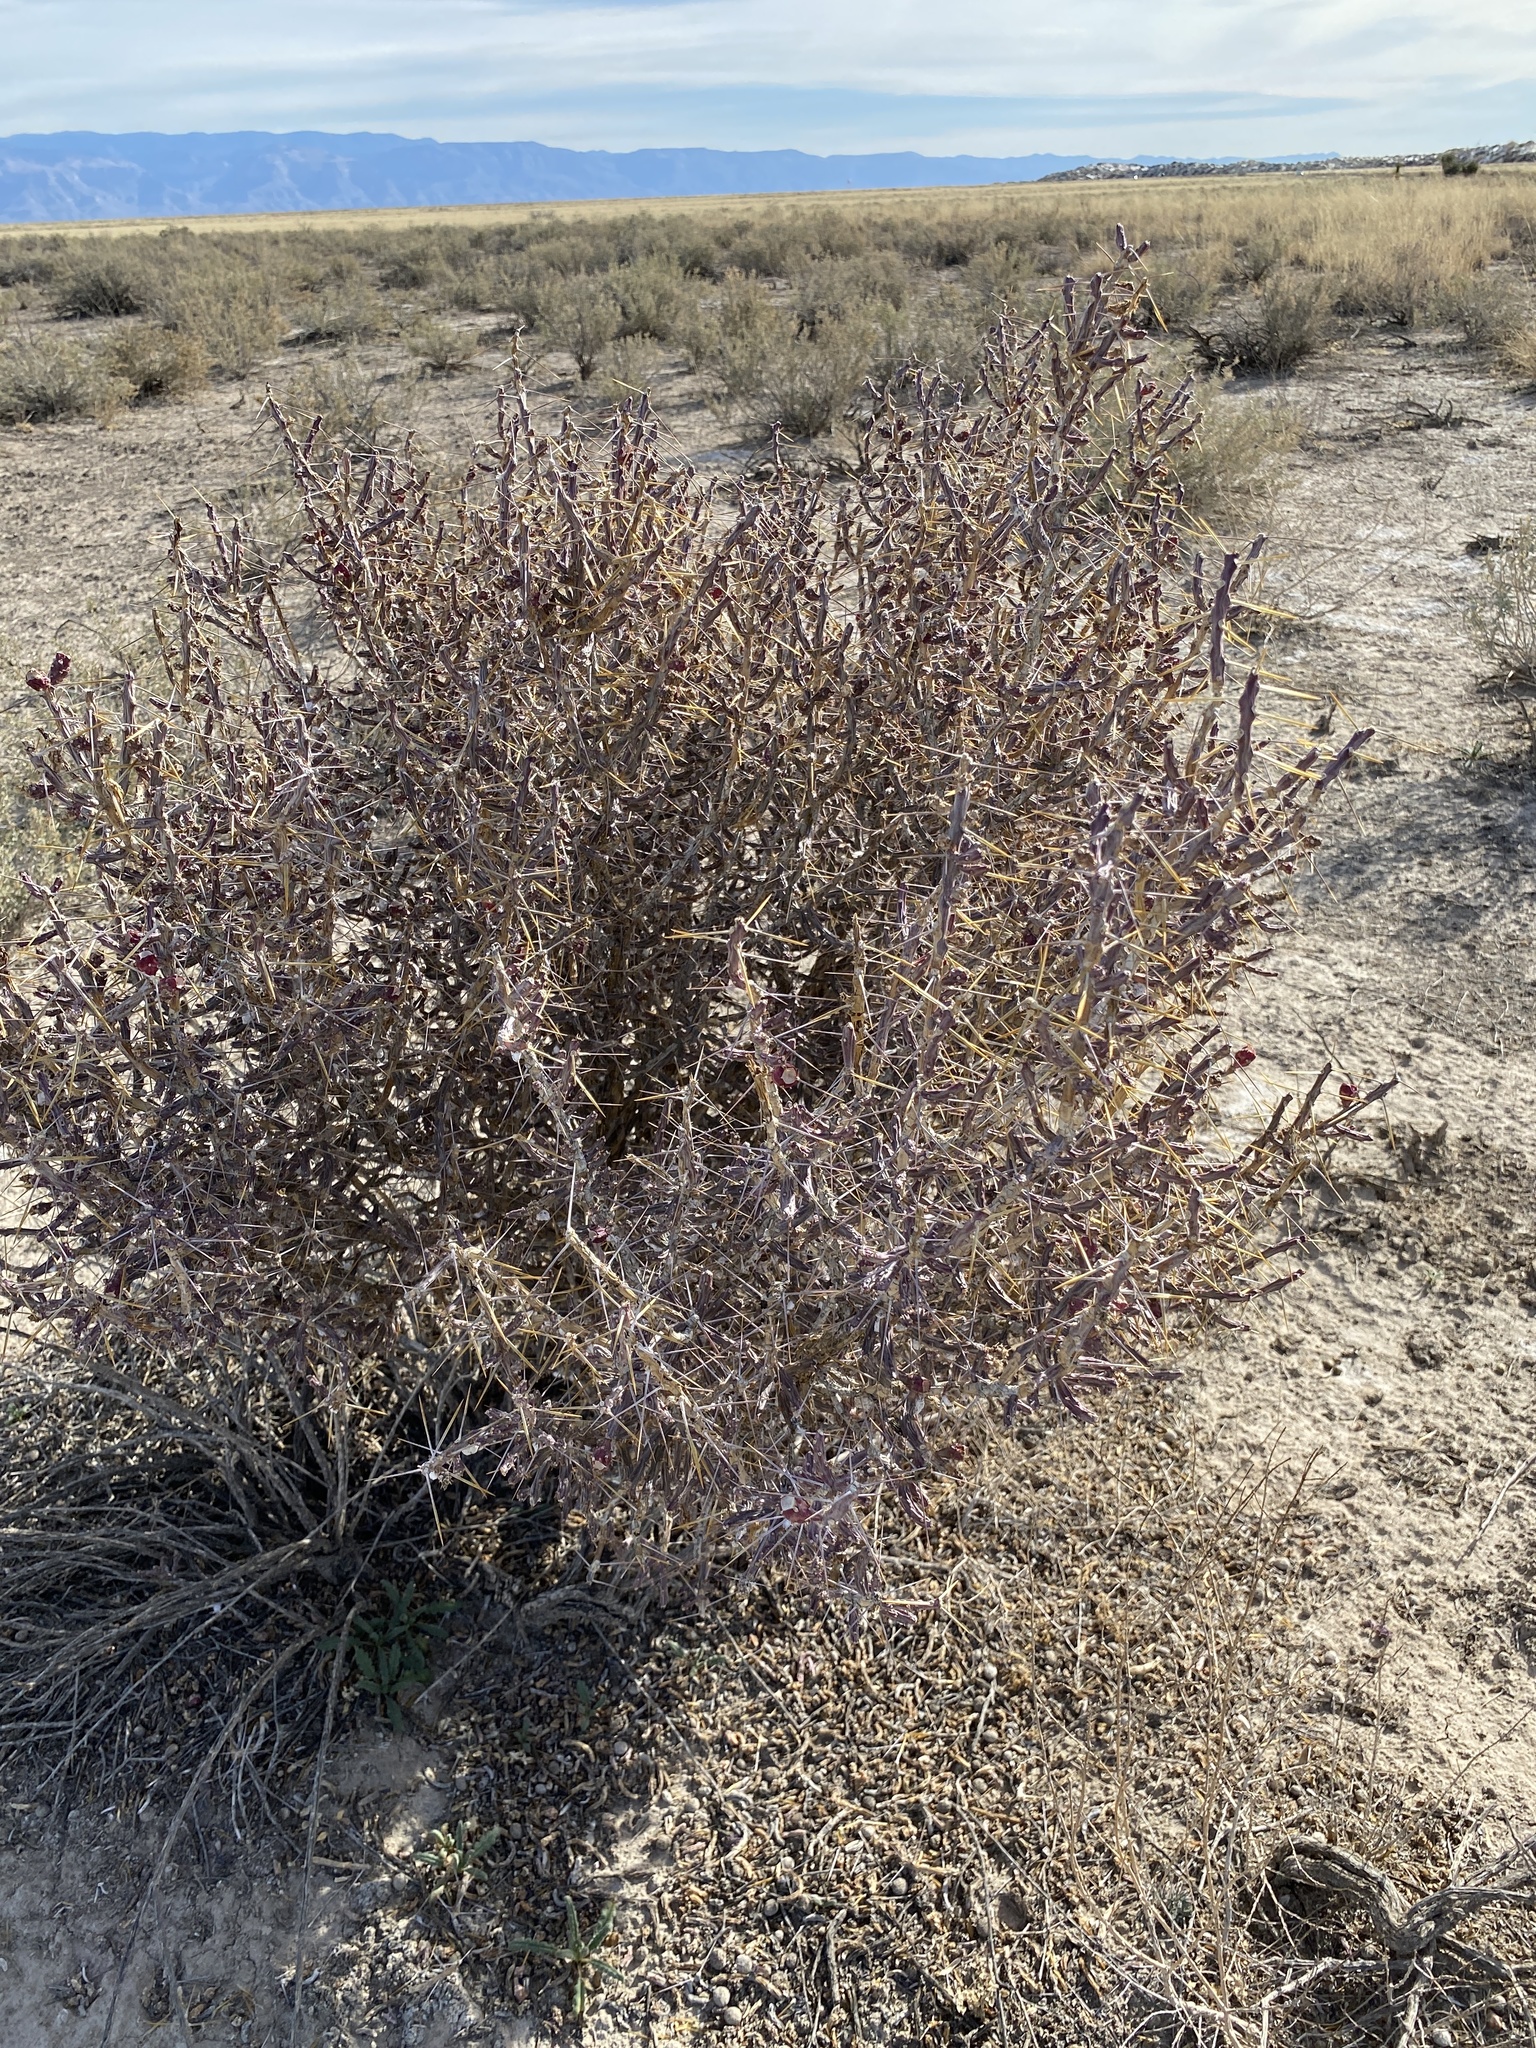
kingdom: Plantae
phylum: Tracheophyta
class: Magnoliopsida
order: Caryophyllales
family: Cactaceae
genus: Cylindropuntia
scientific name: Cylindropuntia leptocaulis
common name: Christmas cactus
